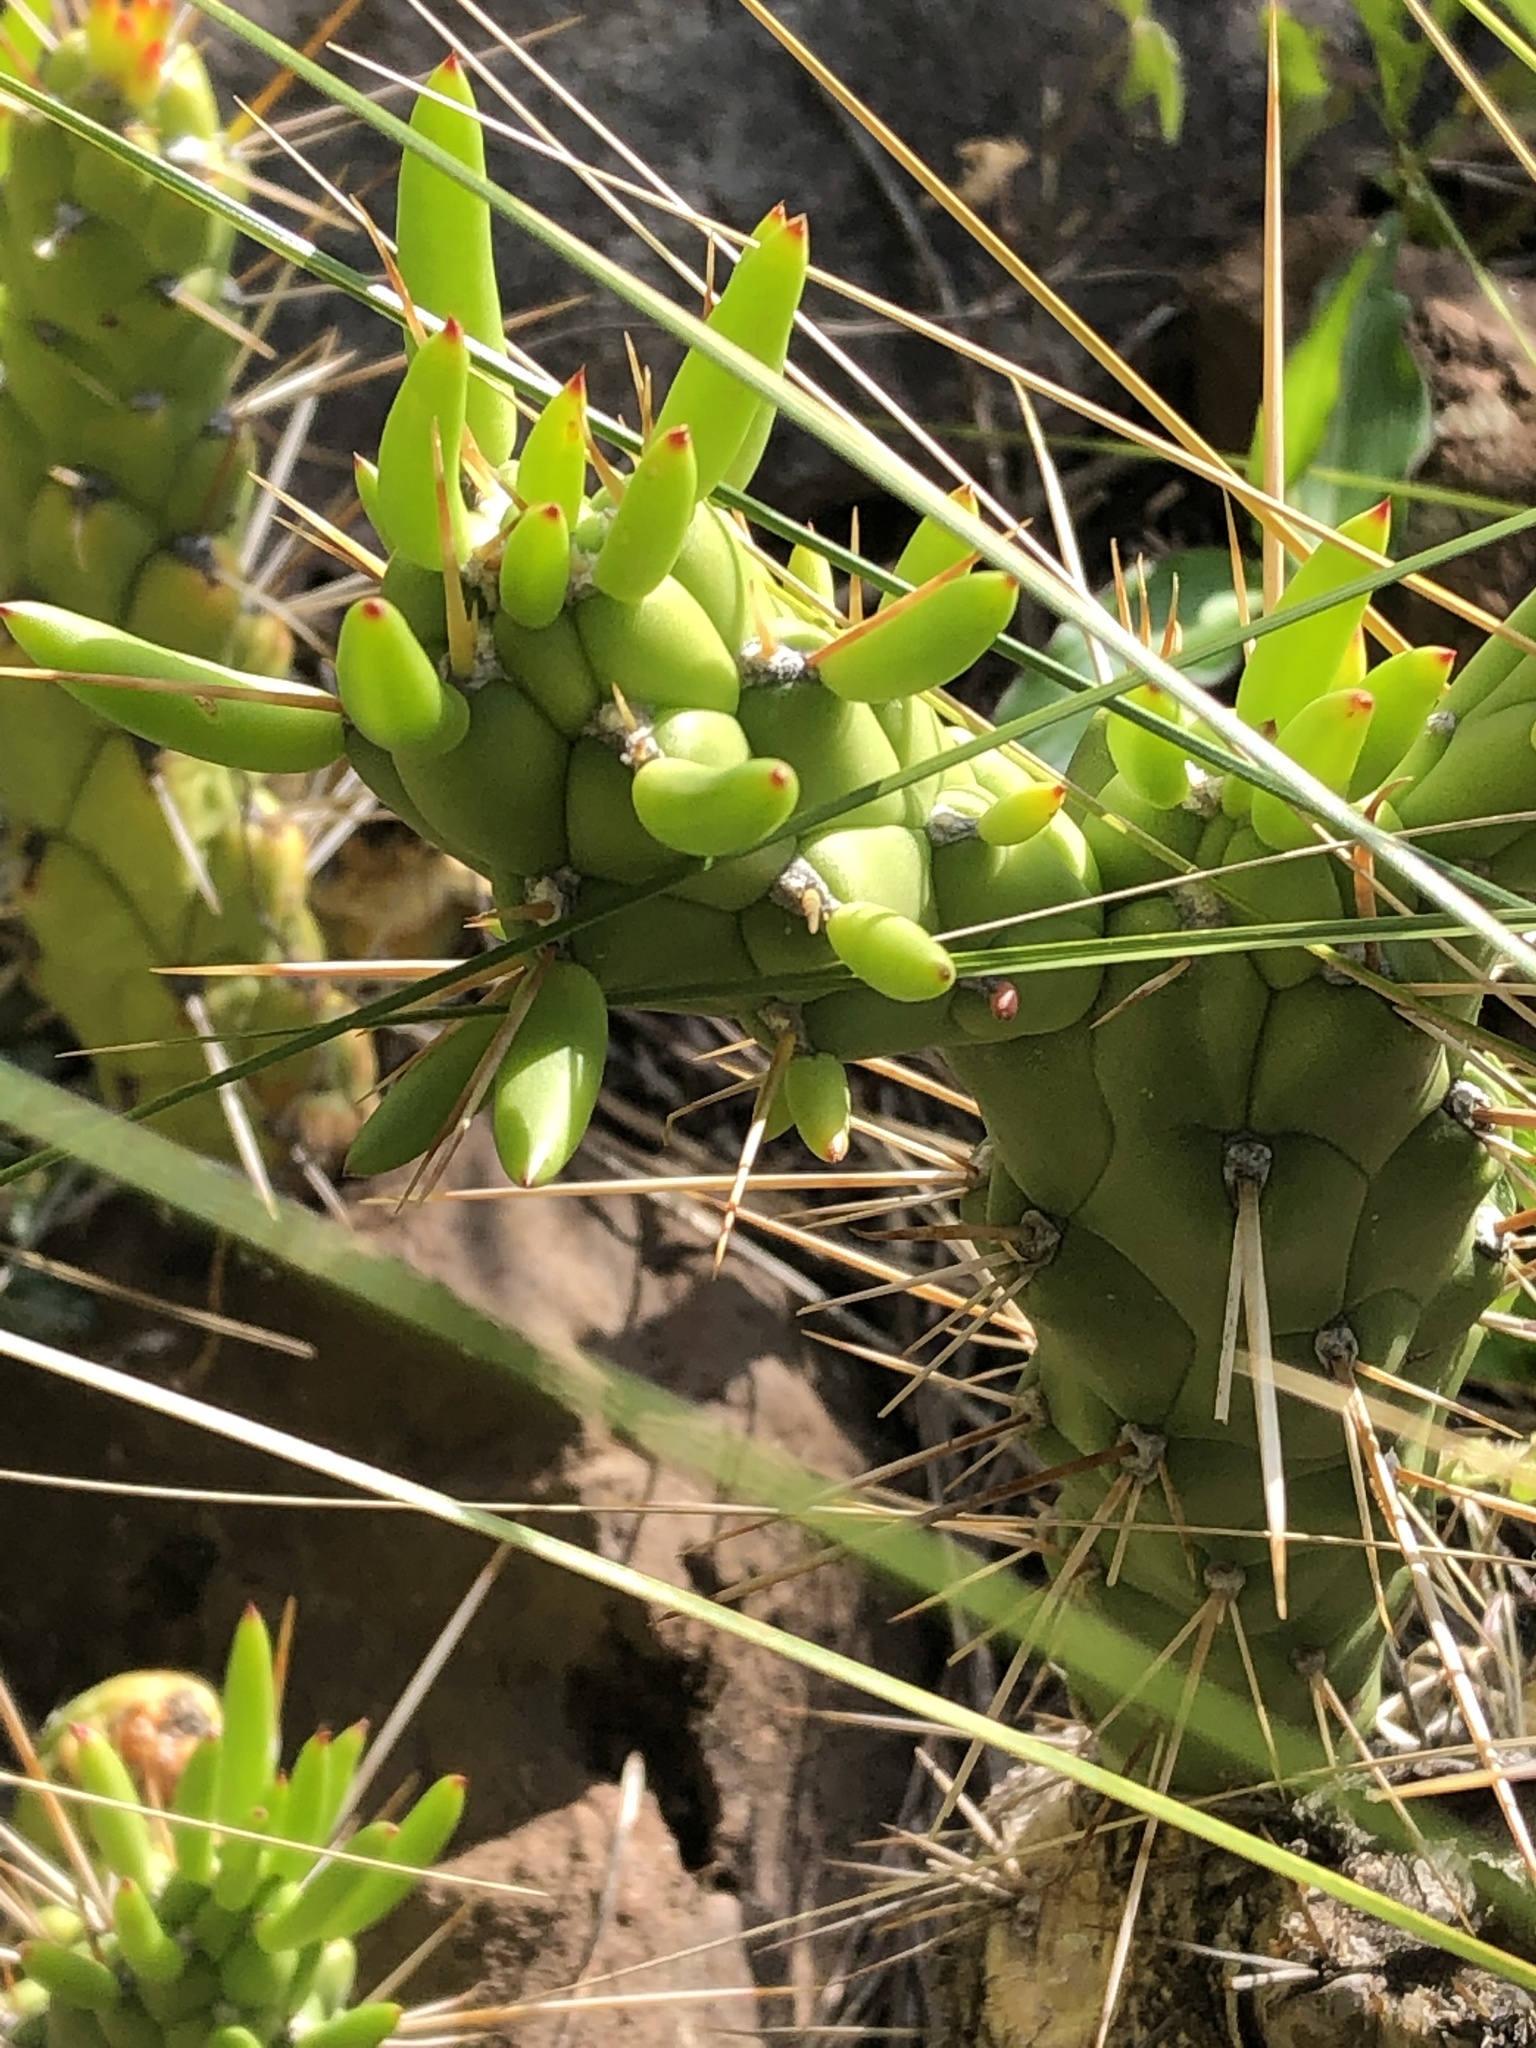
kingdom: Plantae
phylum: Tracheophyta
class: Magnoliopsida
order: Caryophyllales
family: Cactaceae
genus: Austrocylindropuntia
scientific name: Austrocylindropuntia subulata
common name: Eve's needle cactus
